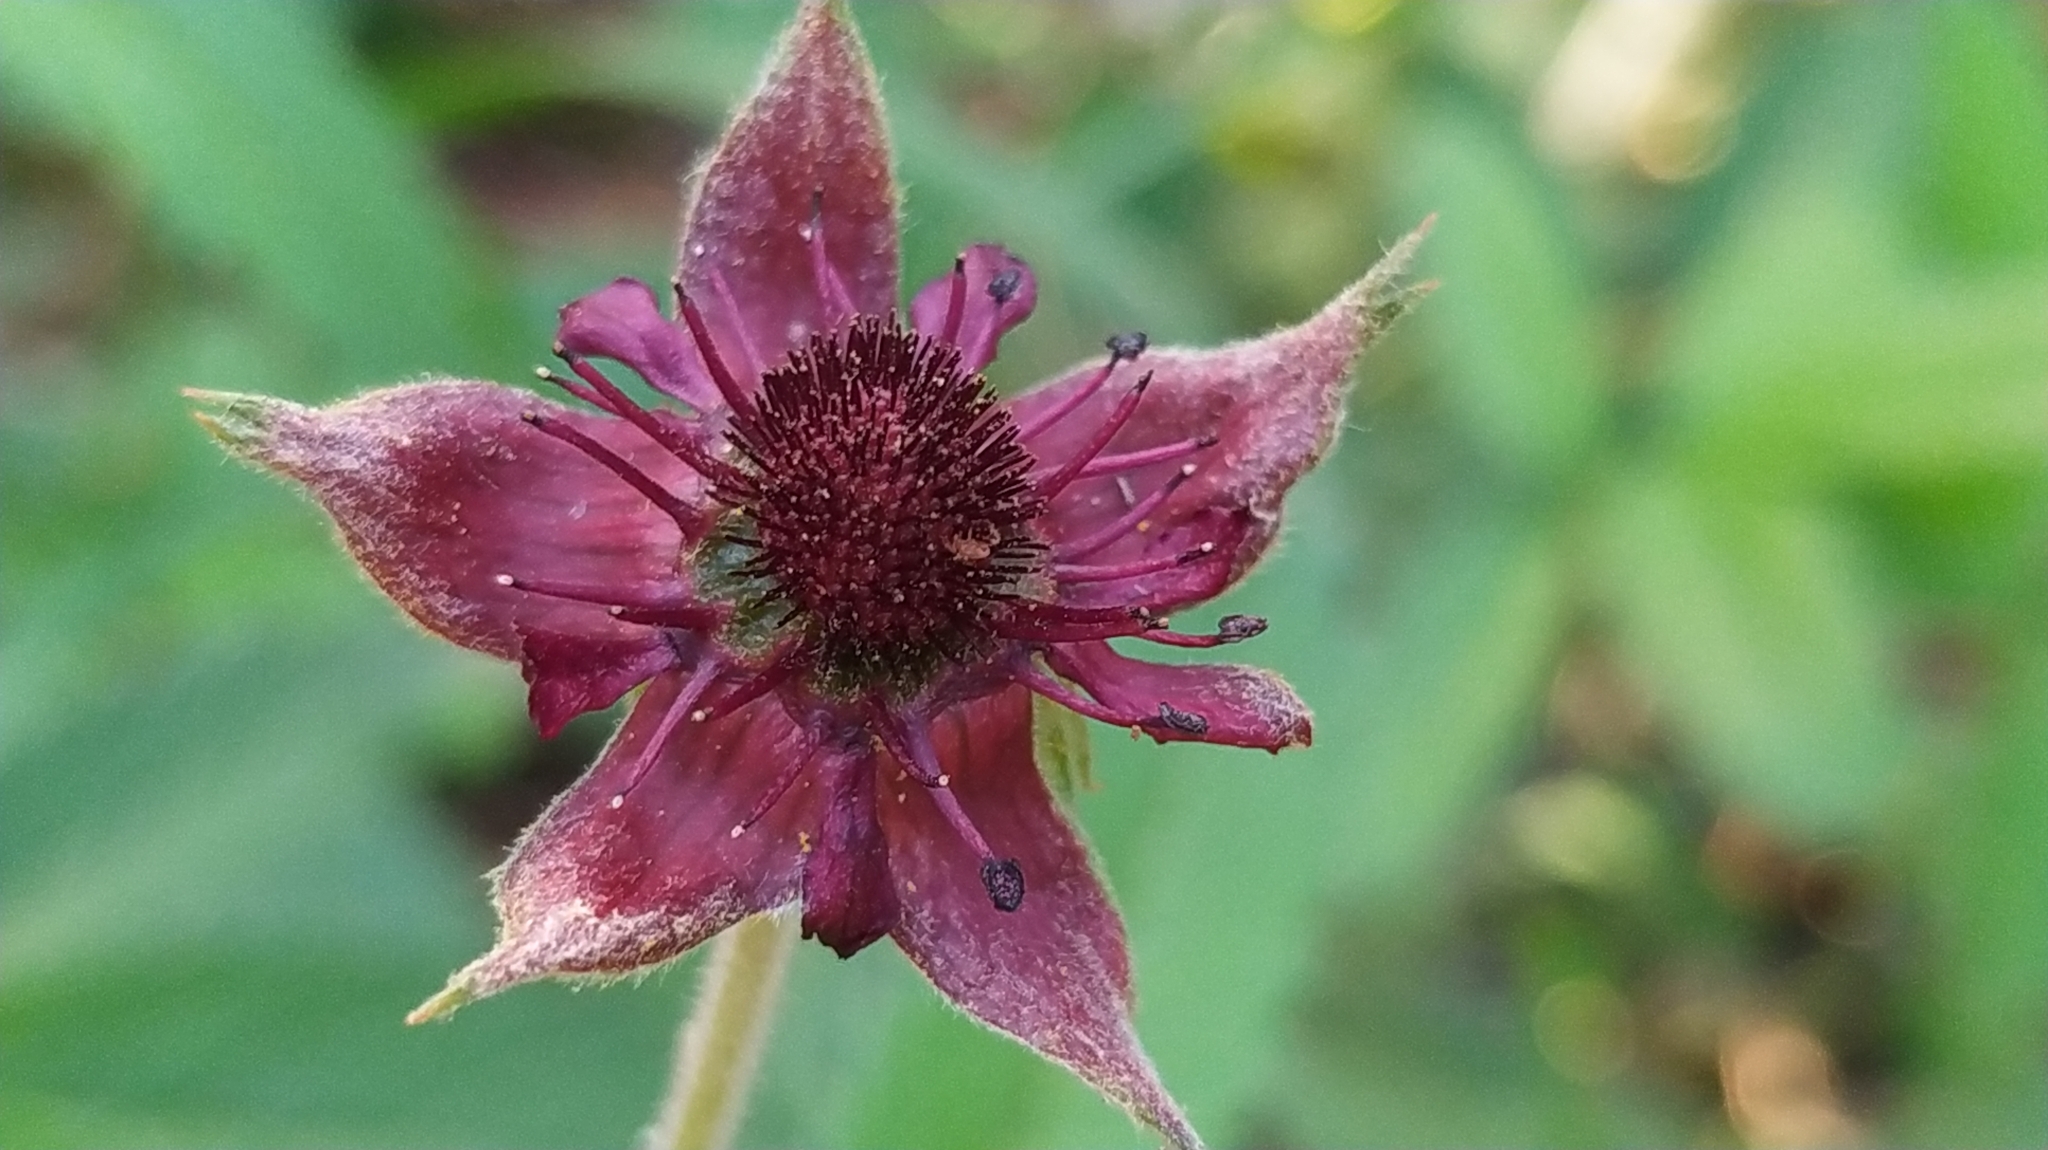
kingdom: Plantae
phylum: Tracheophyta
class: Magnoliopsida
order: Rosales
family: Rosaceae
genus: Comarum
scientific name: Comarum palustre
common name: Marsh cinquefoil
